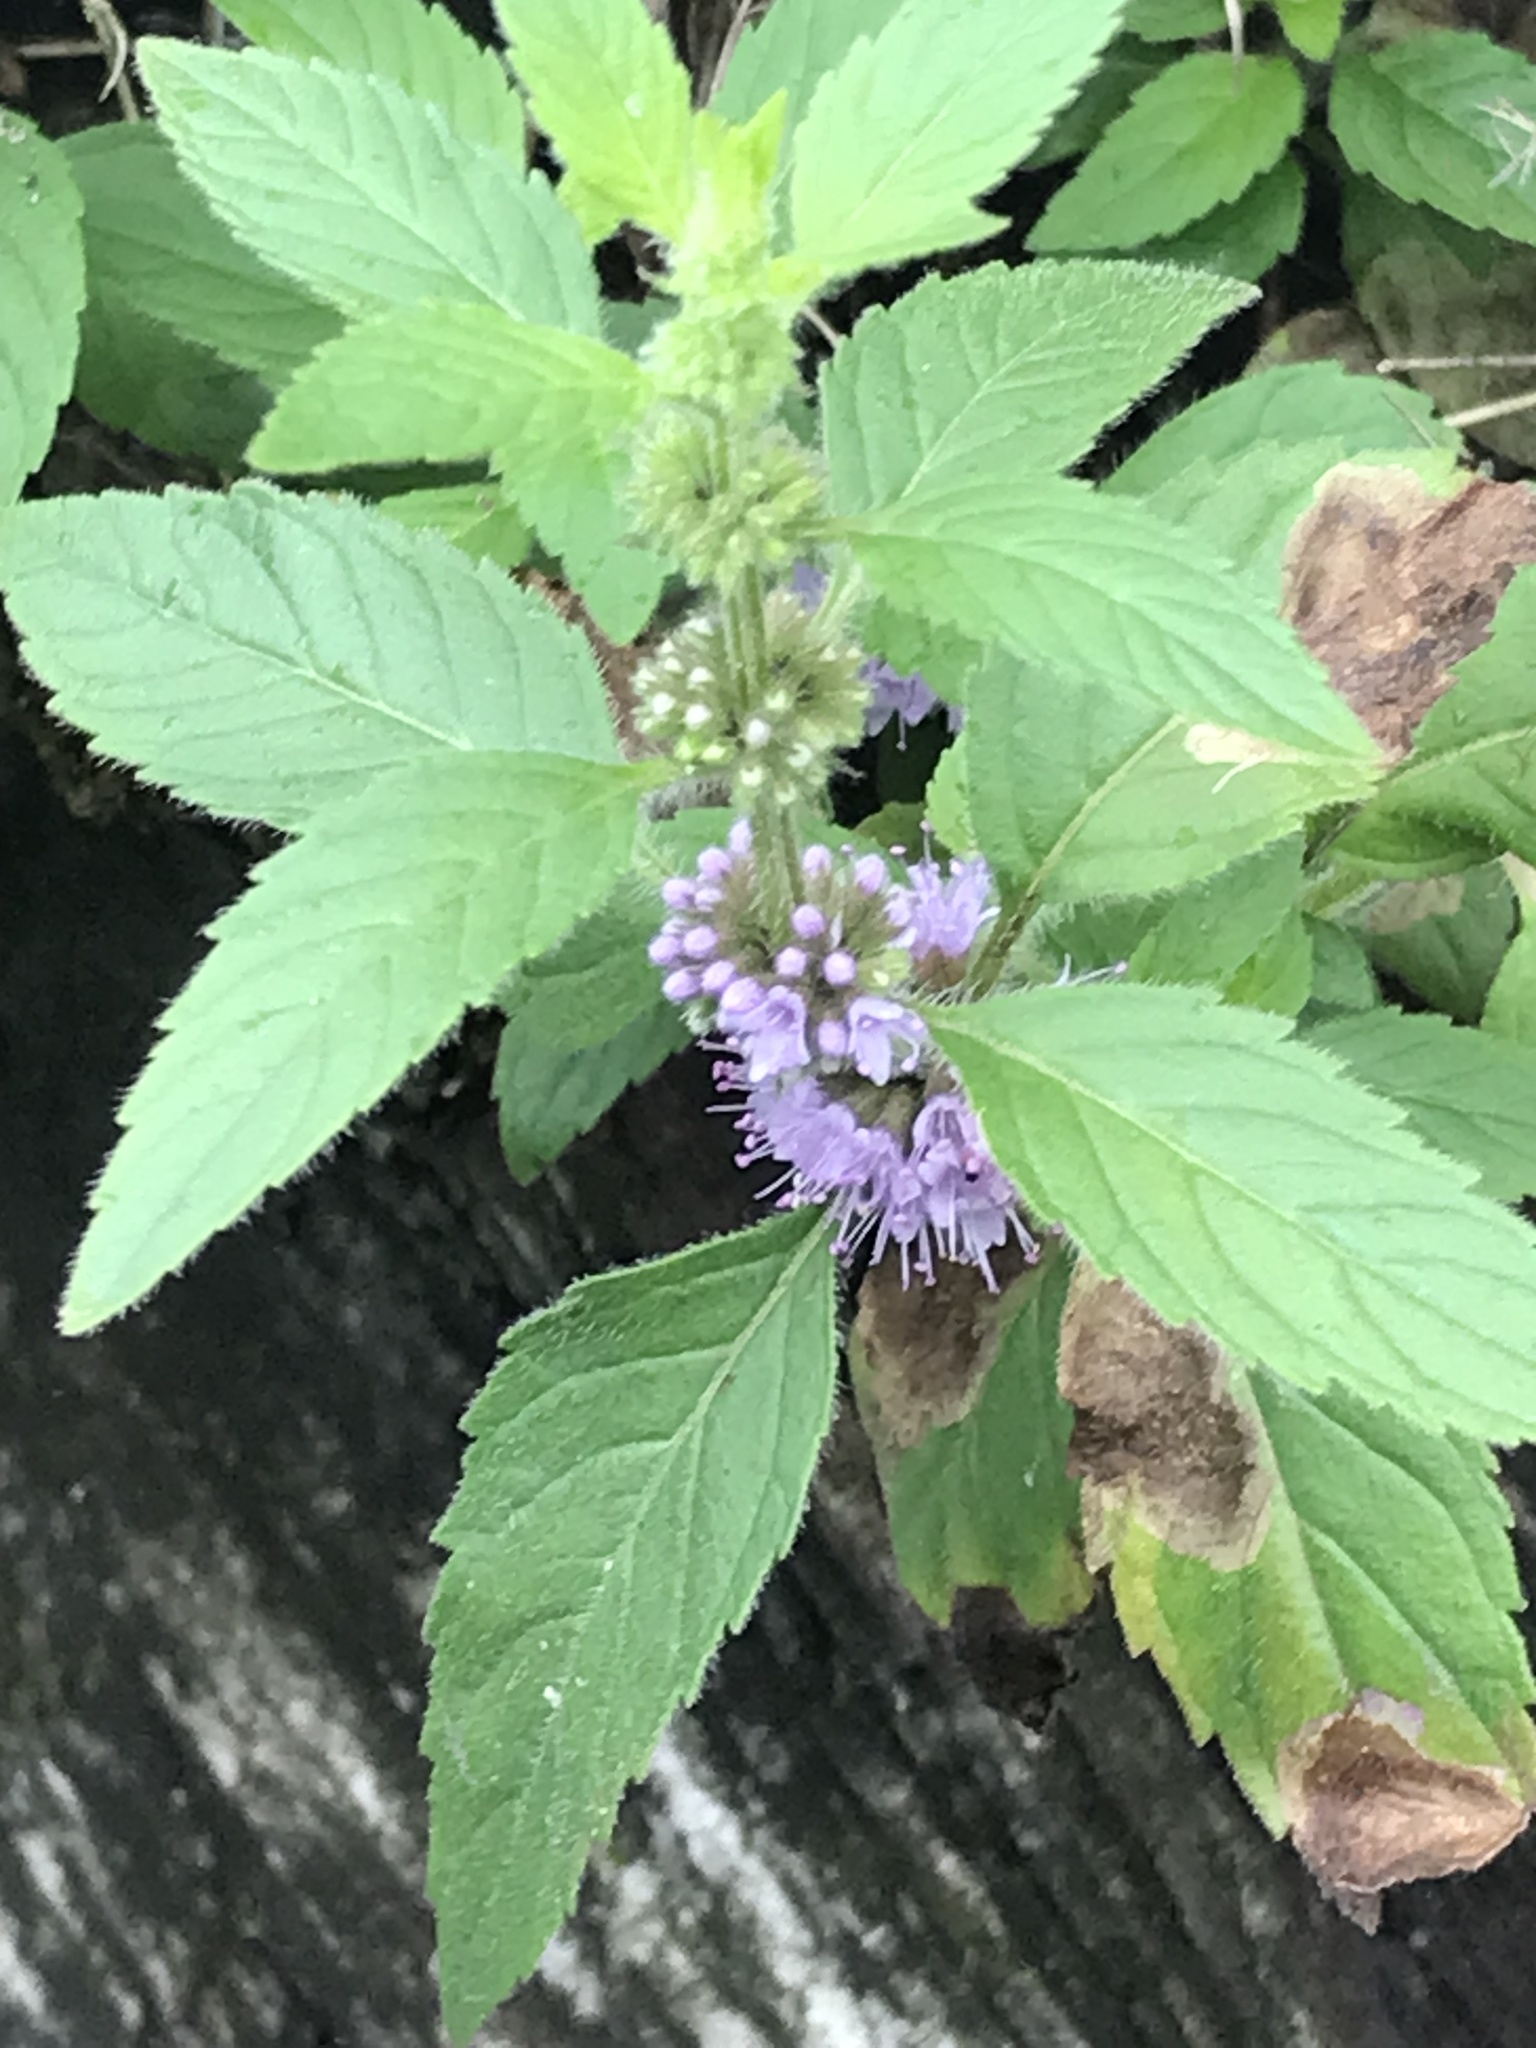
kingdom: Plantae
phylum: Tracheophyta
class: Magnoliopsida
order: Lamiales
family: Lamiaceae
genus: Mentha
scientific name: Mentha canadensis
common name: American corn mint
